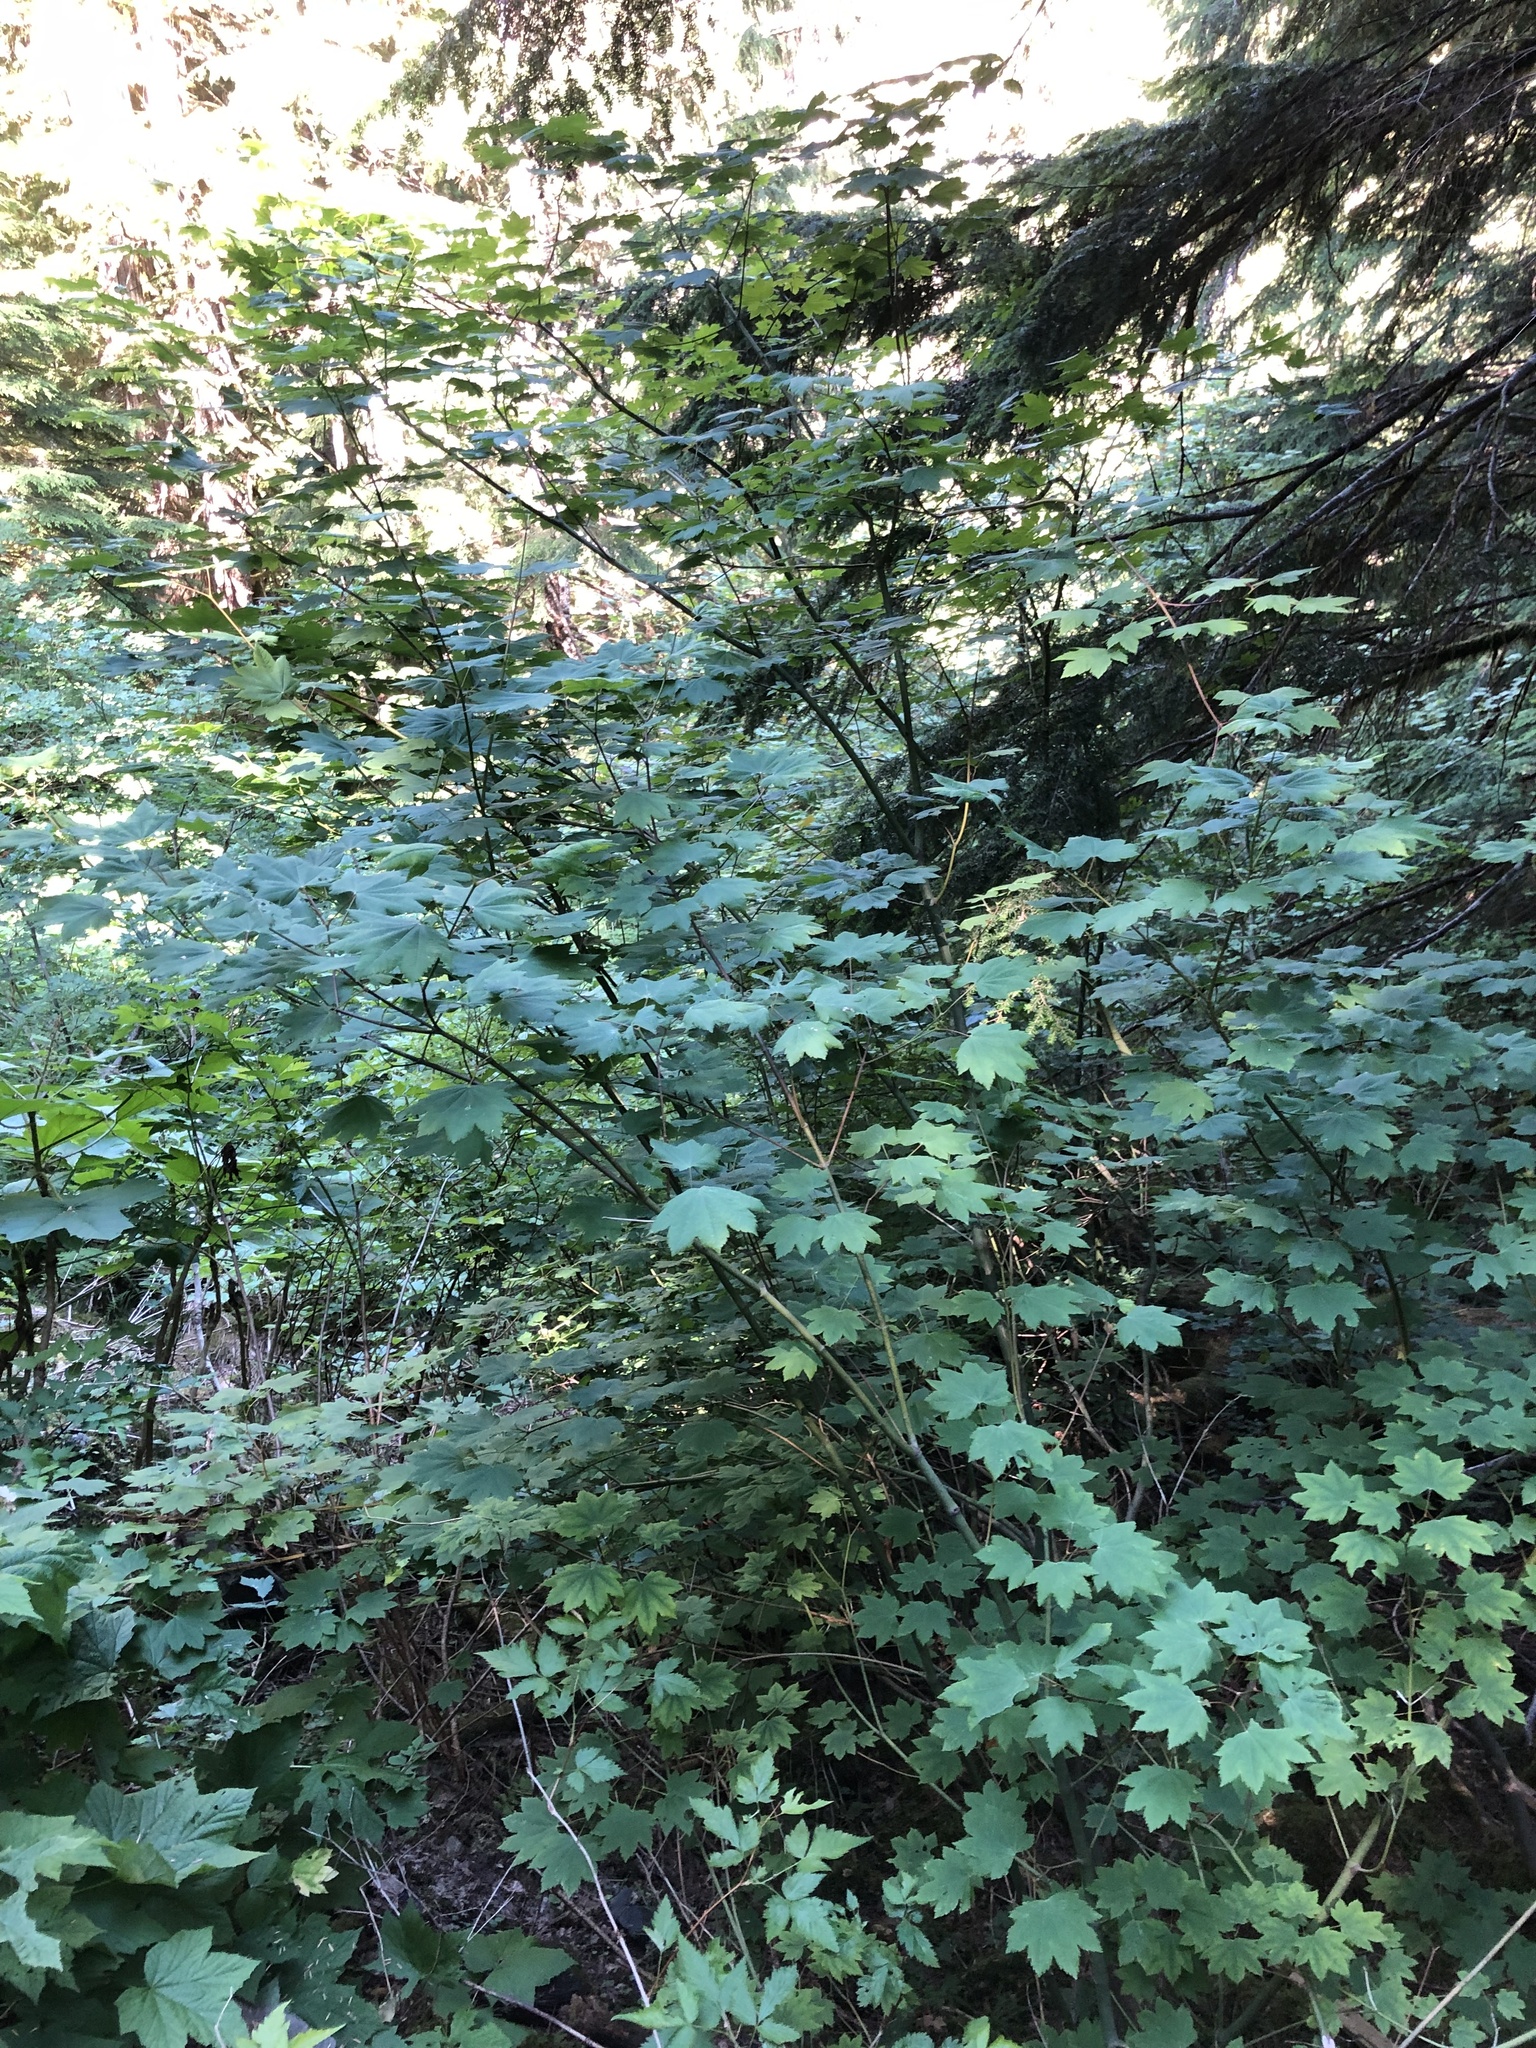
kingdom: Plantae
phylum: Tracheophyta
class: Magnoliopsida
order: Sapindales
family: Sapindaceae
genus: Acer
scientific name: Acer circinatum
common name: Vine maple
